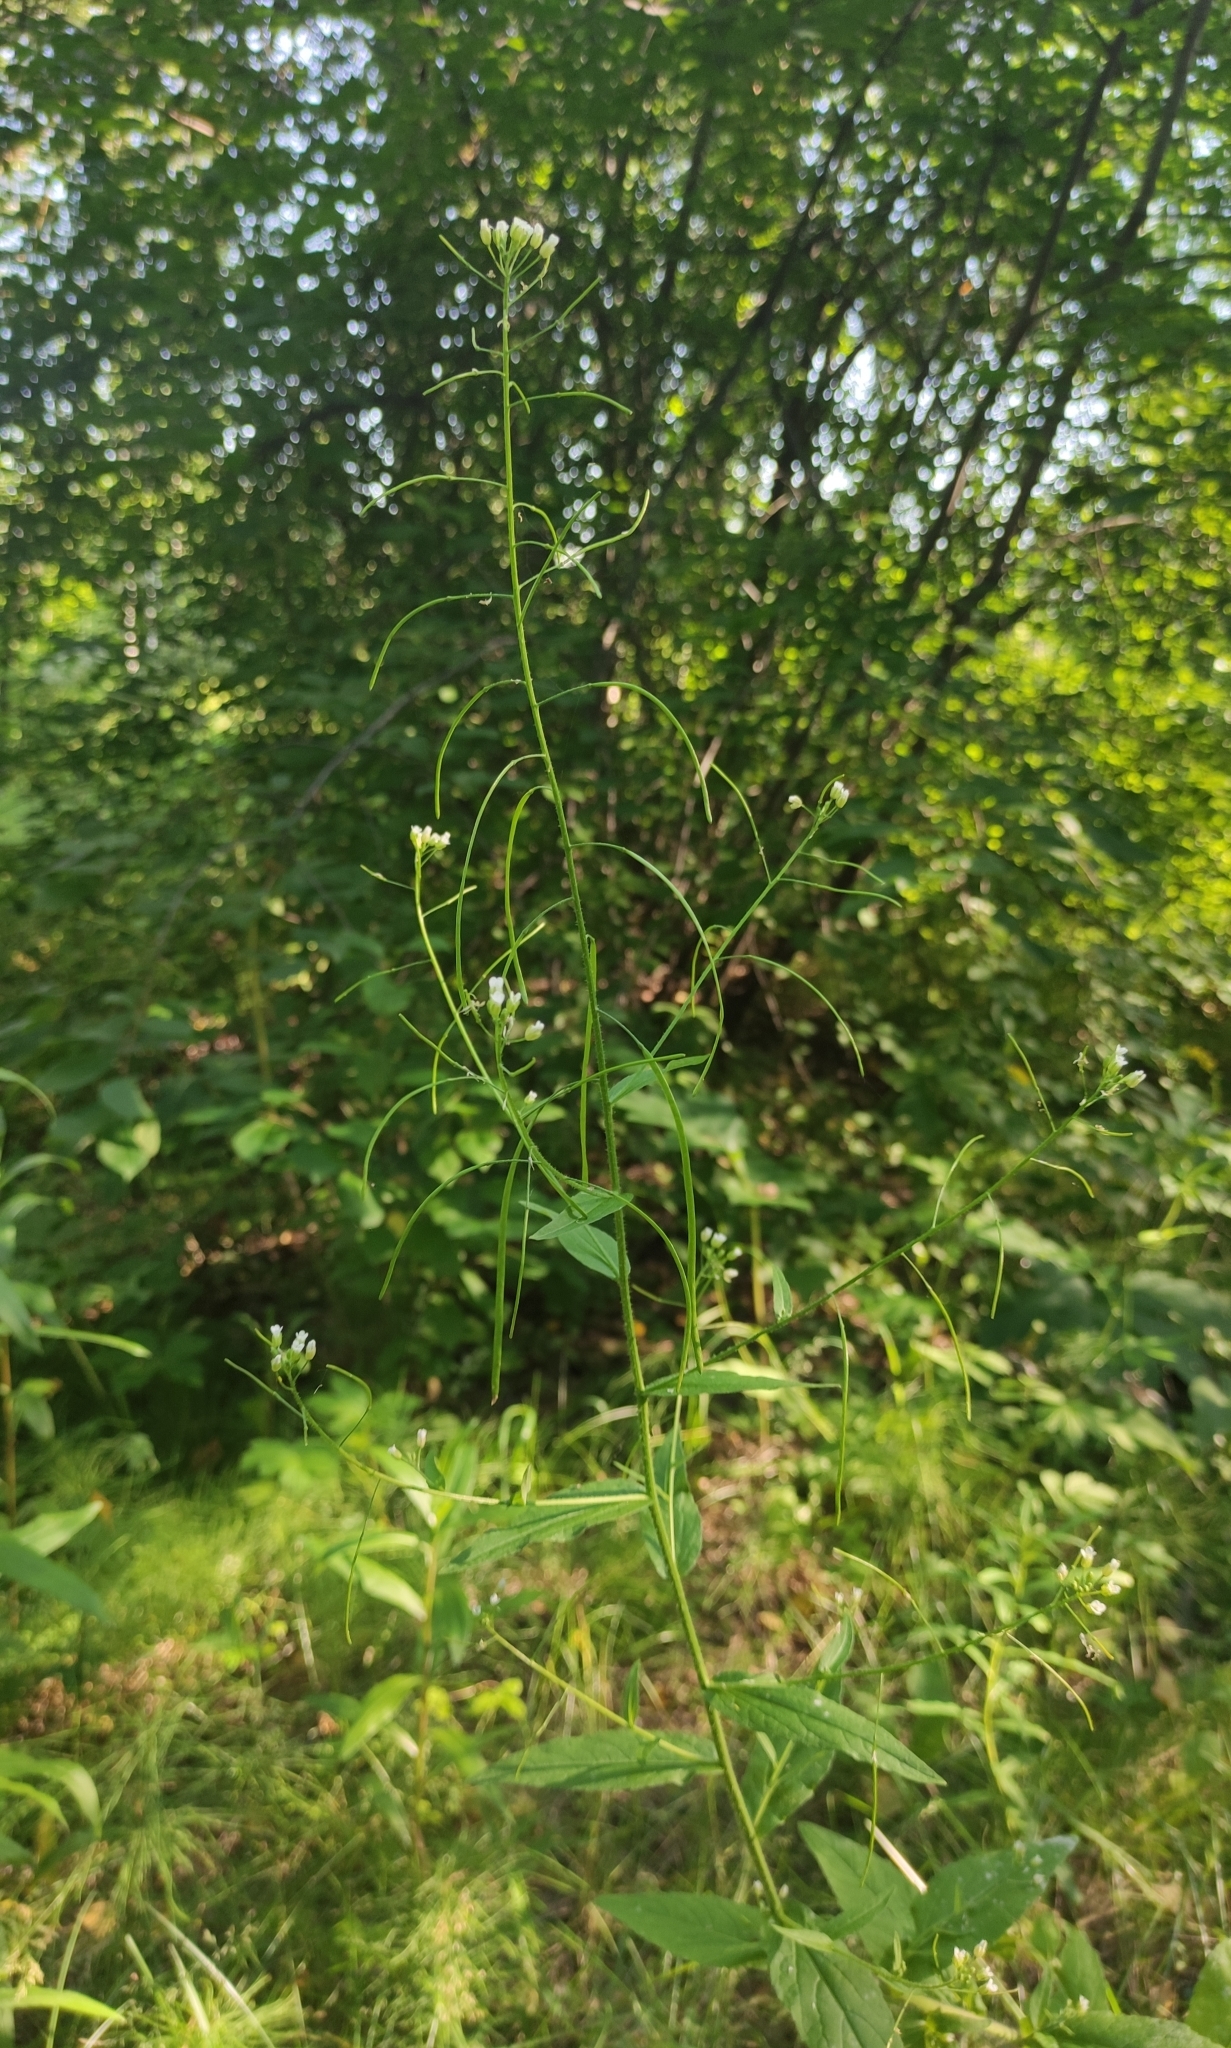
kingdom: Plantae
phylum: Tracheophyta
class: Magnoliopsida
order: Brassicales
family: Brassicaceae
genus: Catolobus
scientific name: Catolobus pendulus
